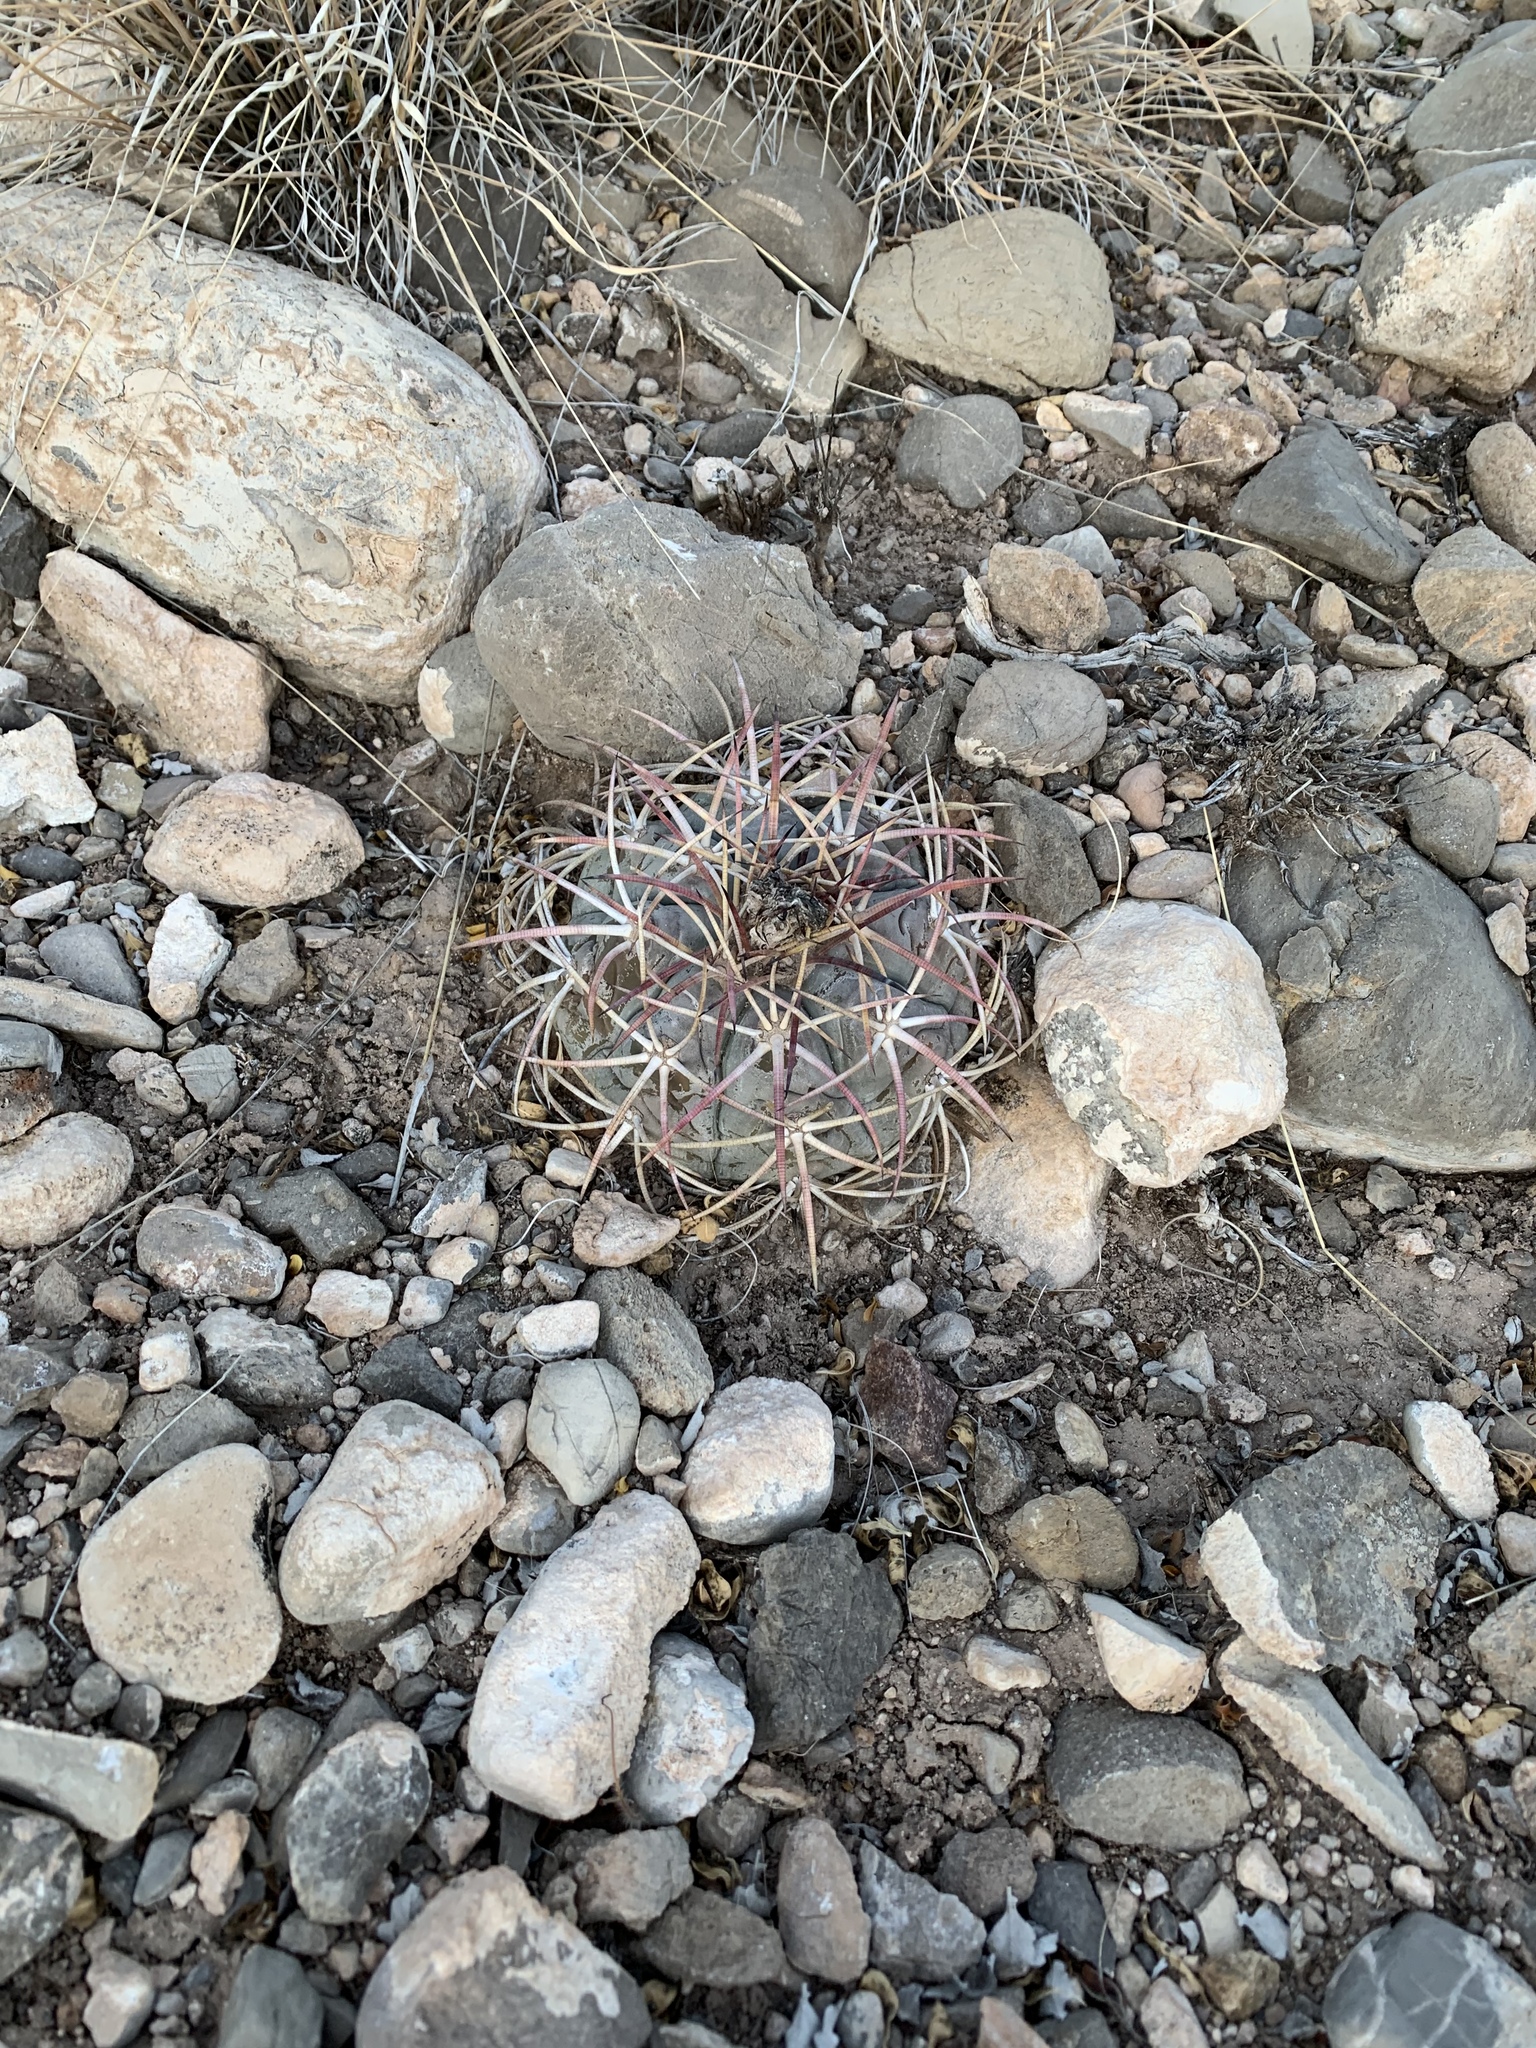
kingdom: Plantae
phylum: Tracheophyta
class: Magnoliopsida
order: Caryophyllales
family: Cactaceae
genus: Echinocactus
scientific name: Echinocactus horizonthalonius
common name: Devilshead
